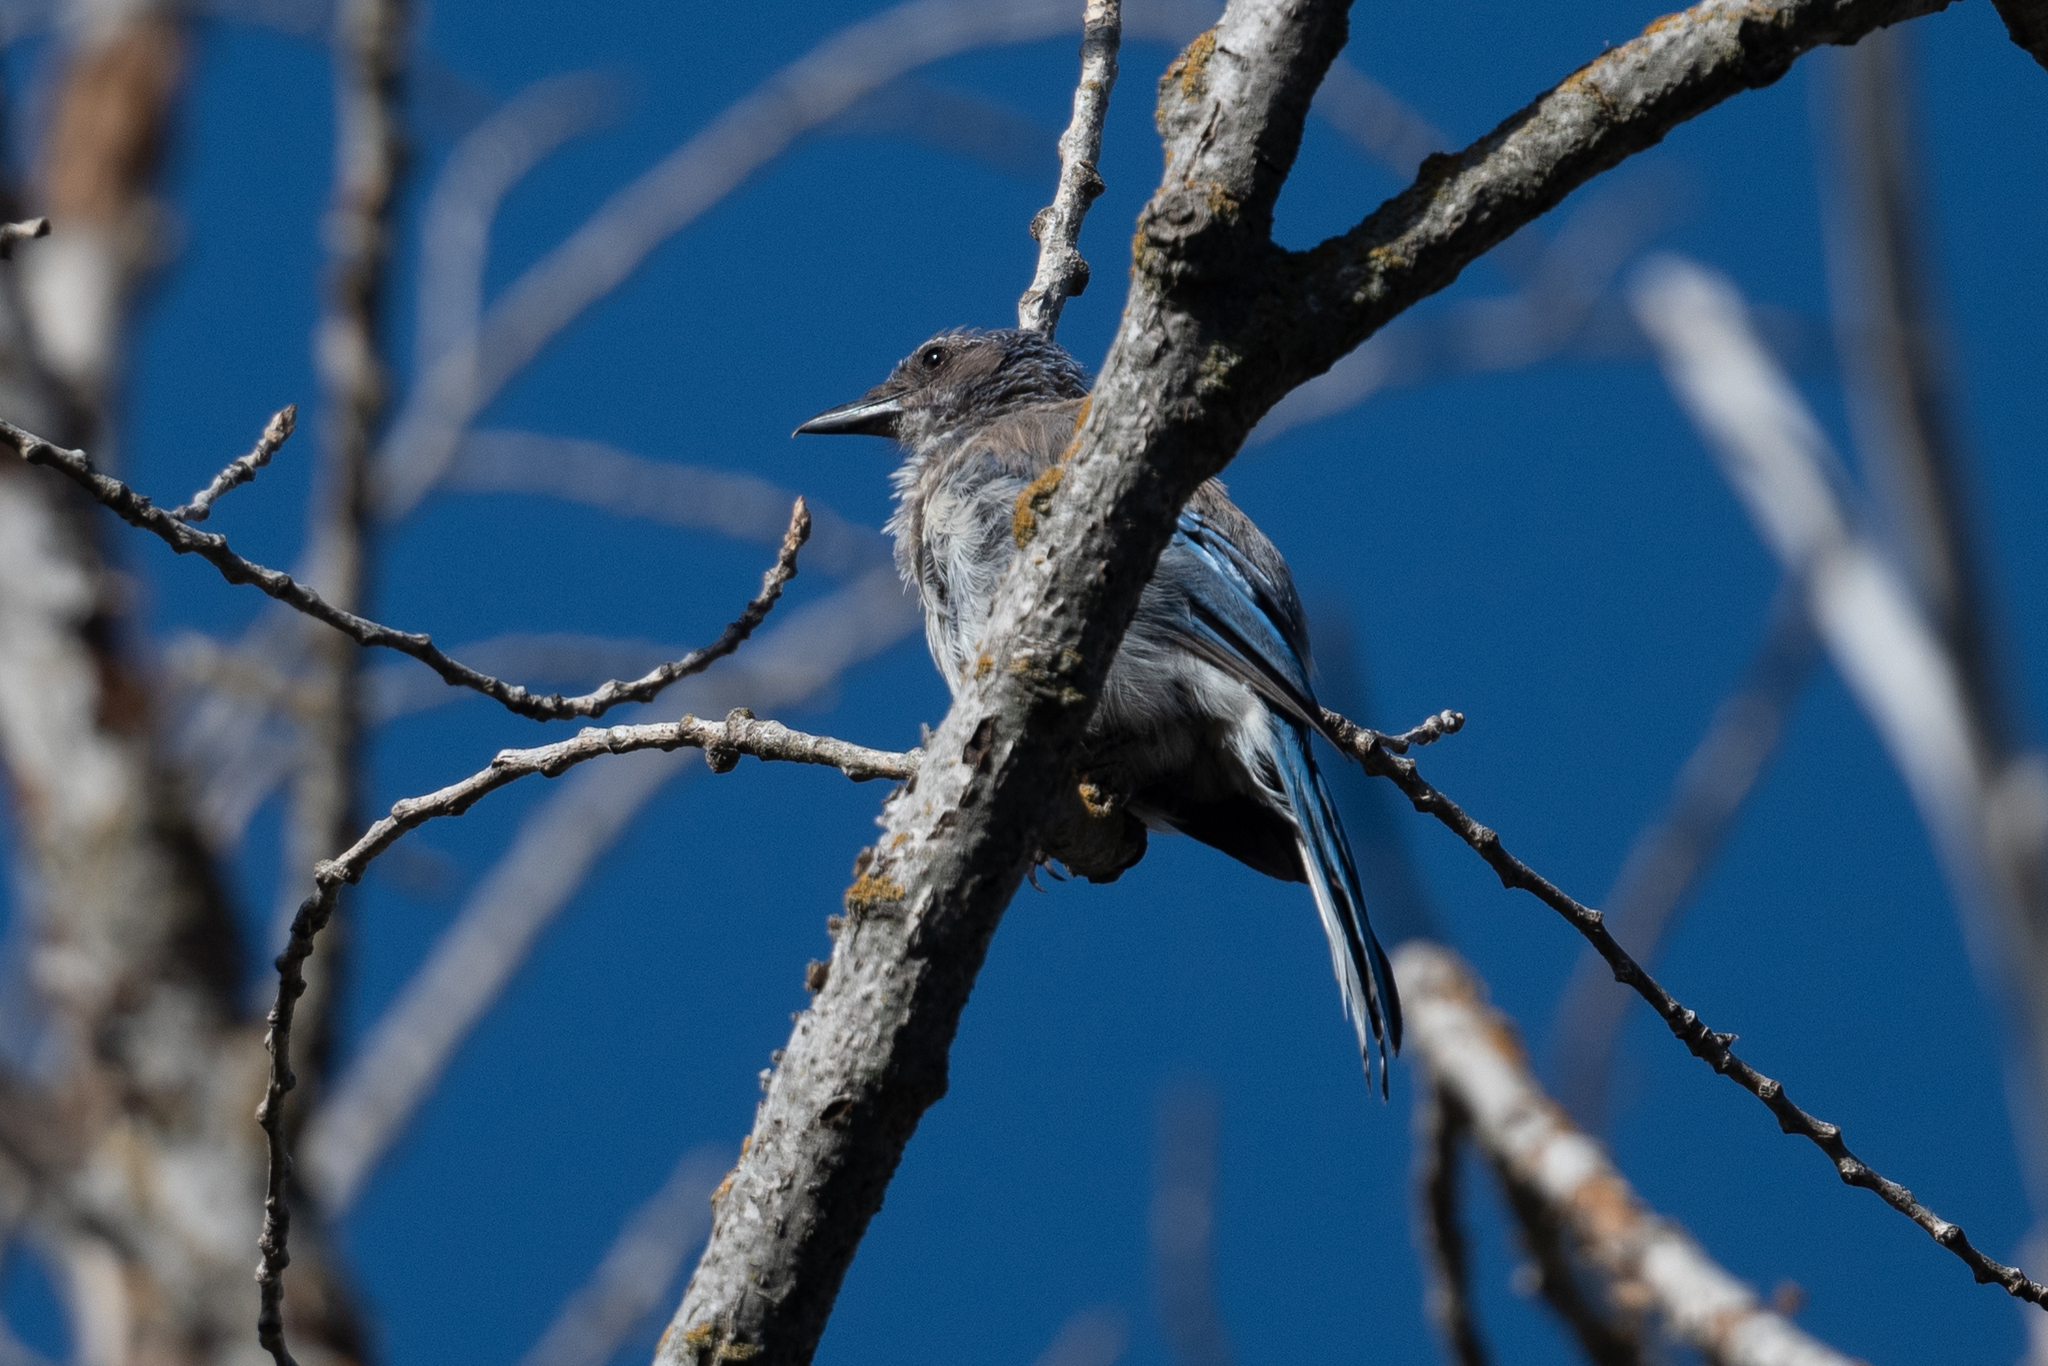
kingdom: Animalia
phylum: Chordata
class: Aves
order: Passeriformes
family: Corvidae
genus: Aphelocoma
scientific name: Aphelocoma californica
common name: California scrub-jay
